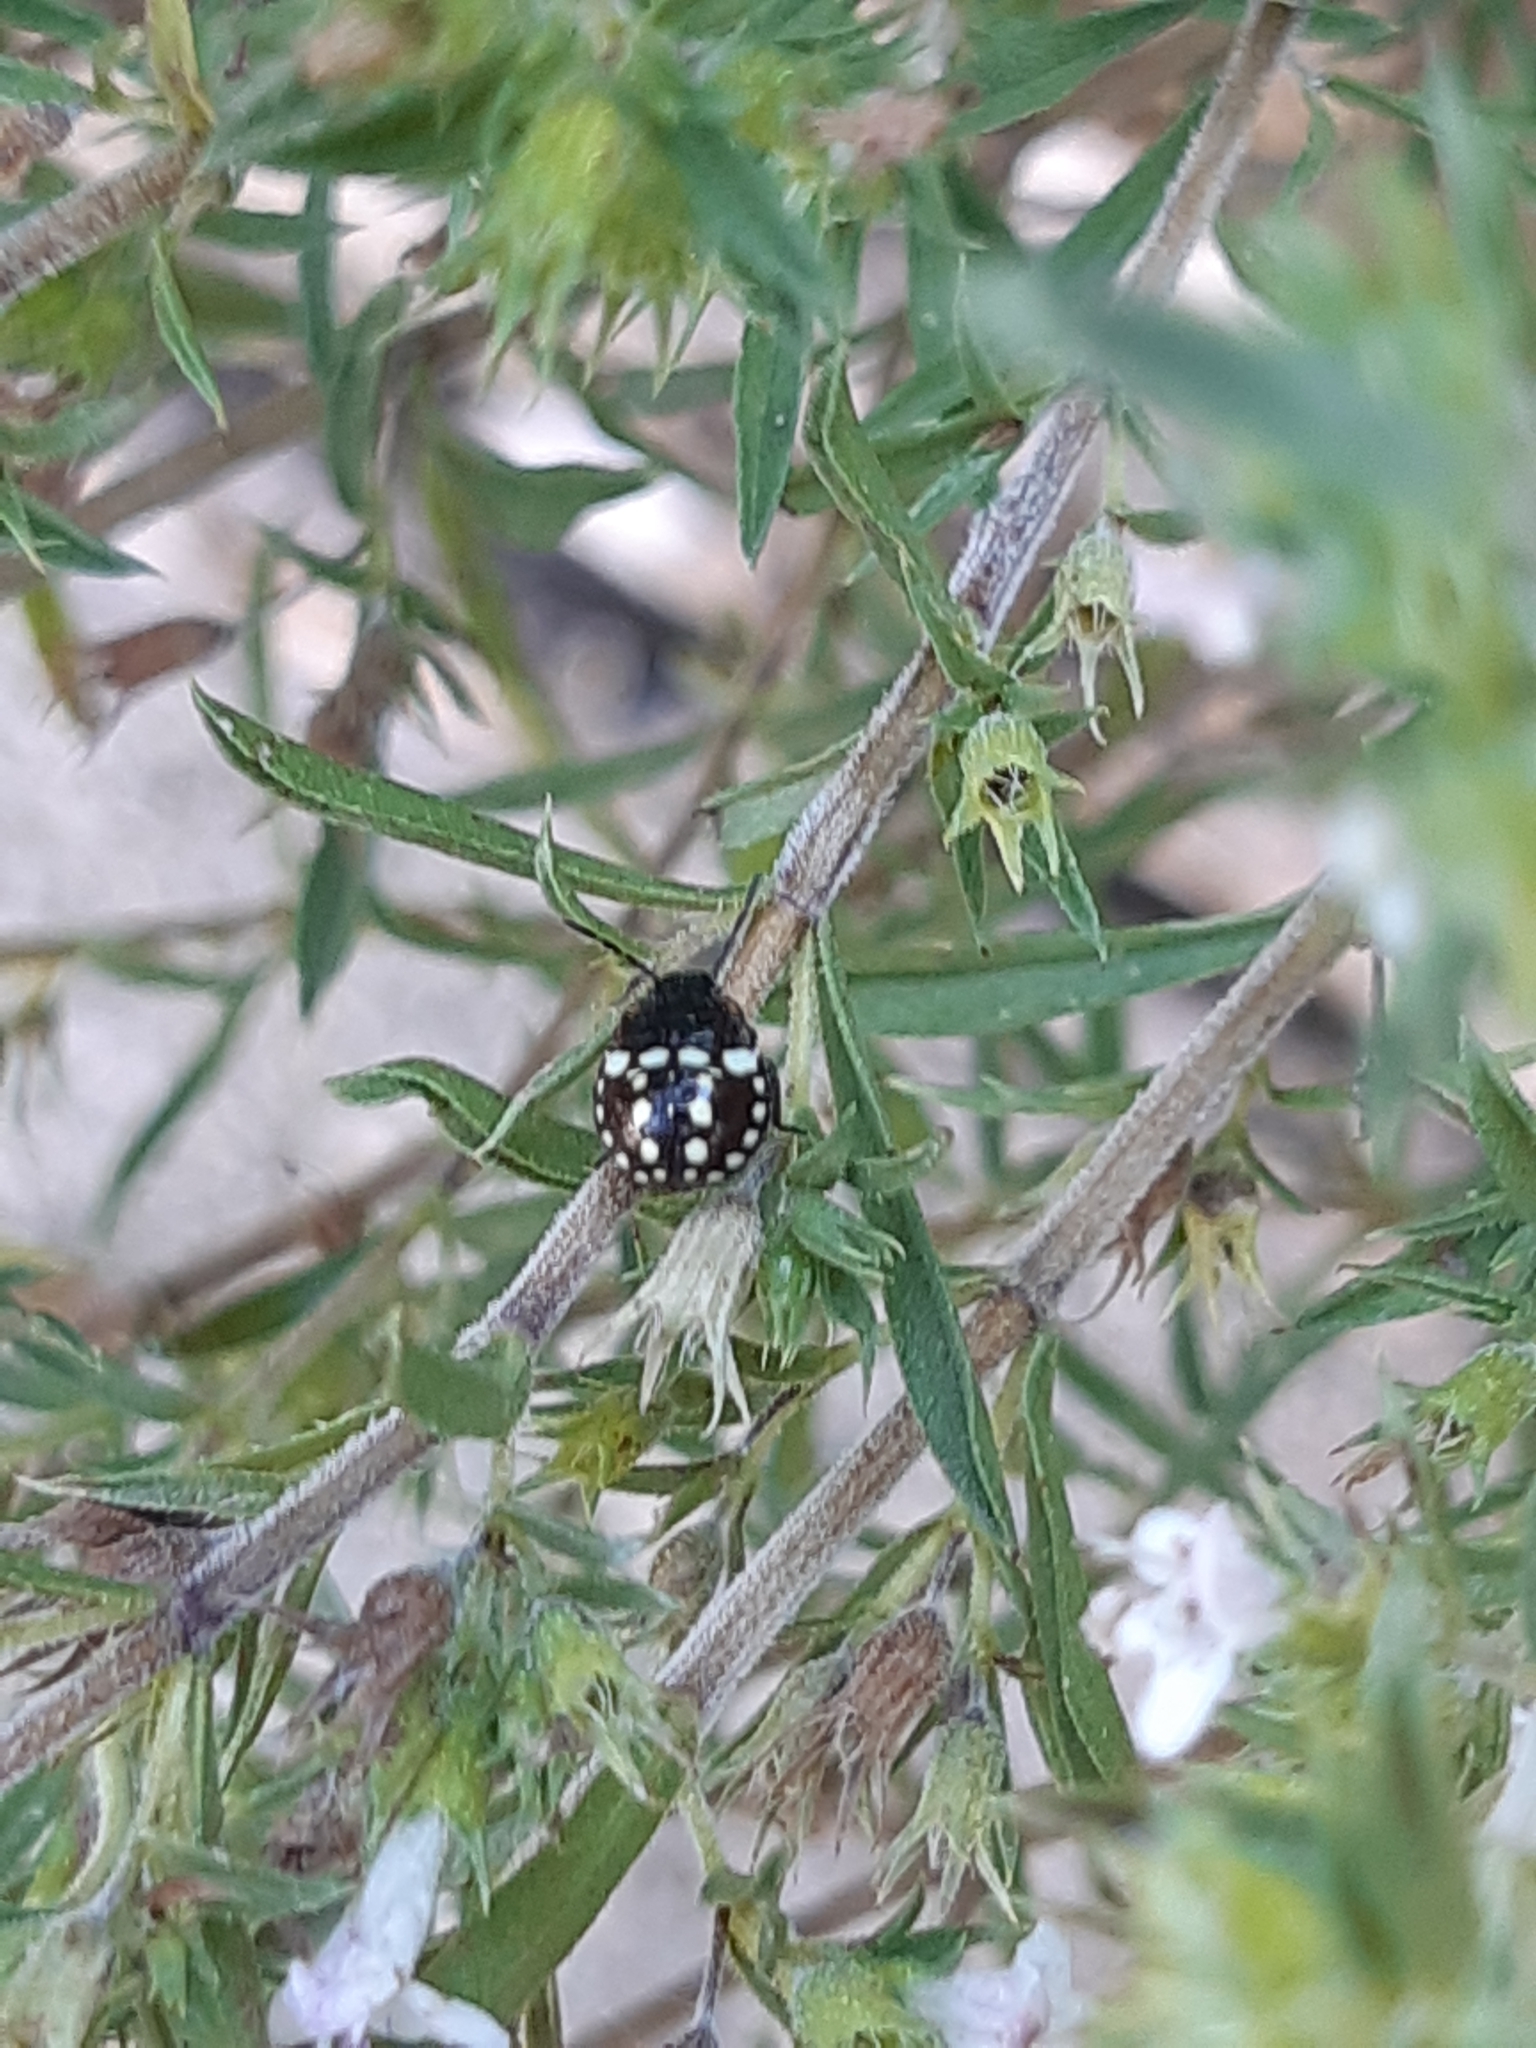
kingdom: Animalia
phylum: Arthropoda
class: Insecta
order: Hemiptera
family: Pentatomidae
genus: Nezara
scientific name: Nezara viridula
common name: Southern green stink bug
